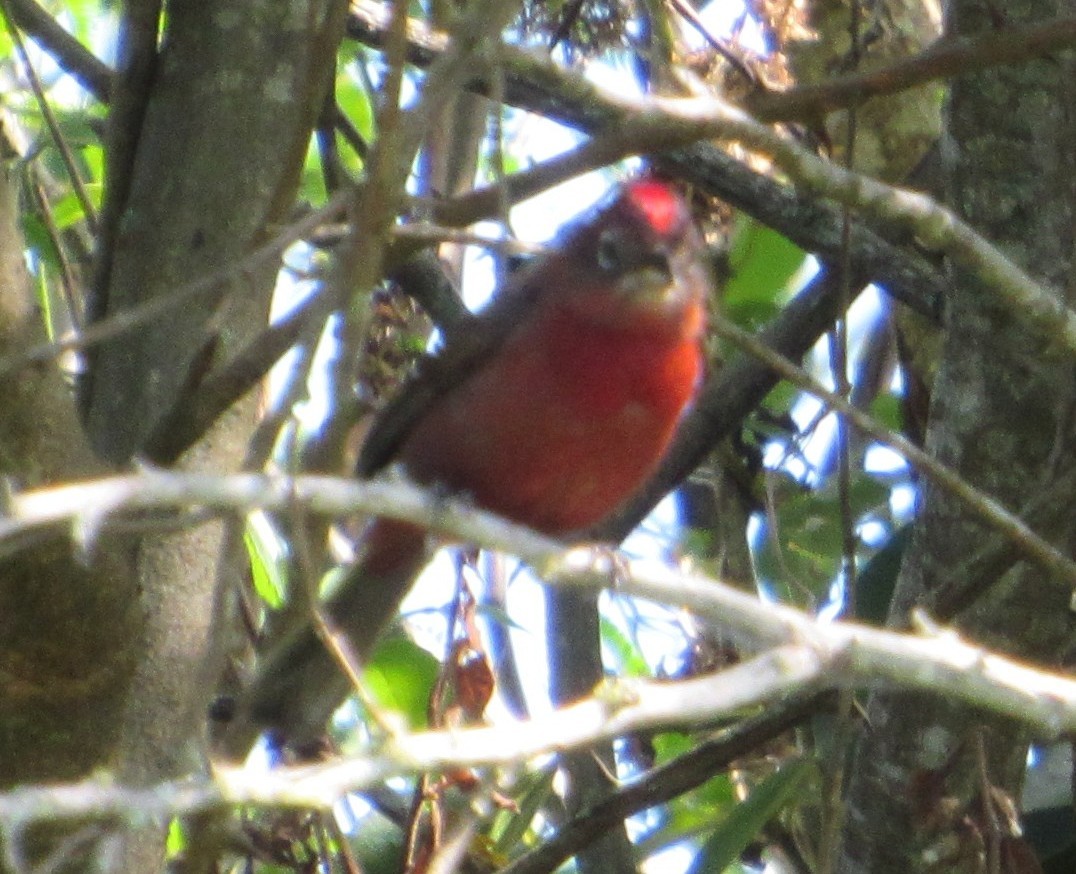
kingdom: Animalia
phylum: Chordata
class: Aves
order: Passeriformes
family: Thraupidae
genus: Coryphospingus
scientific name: Coryphospingus cucullatus
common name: Red pileated finch
